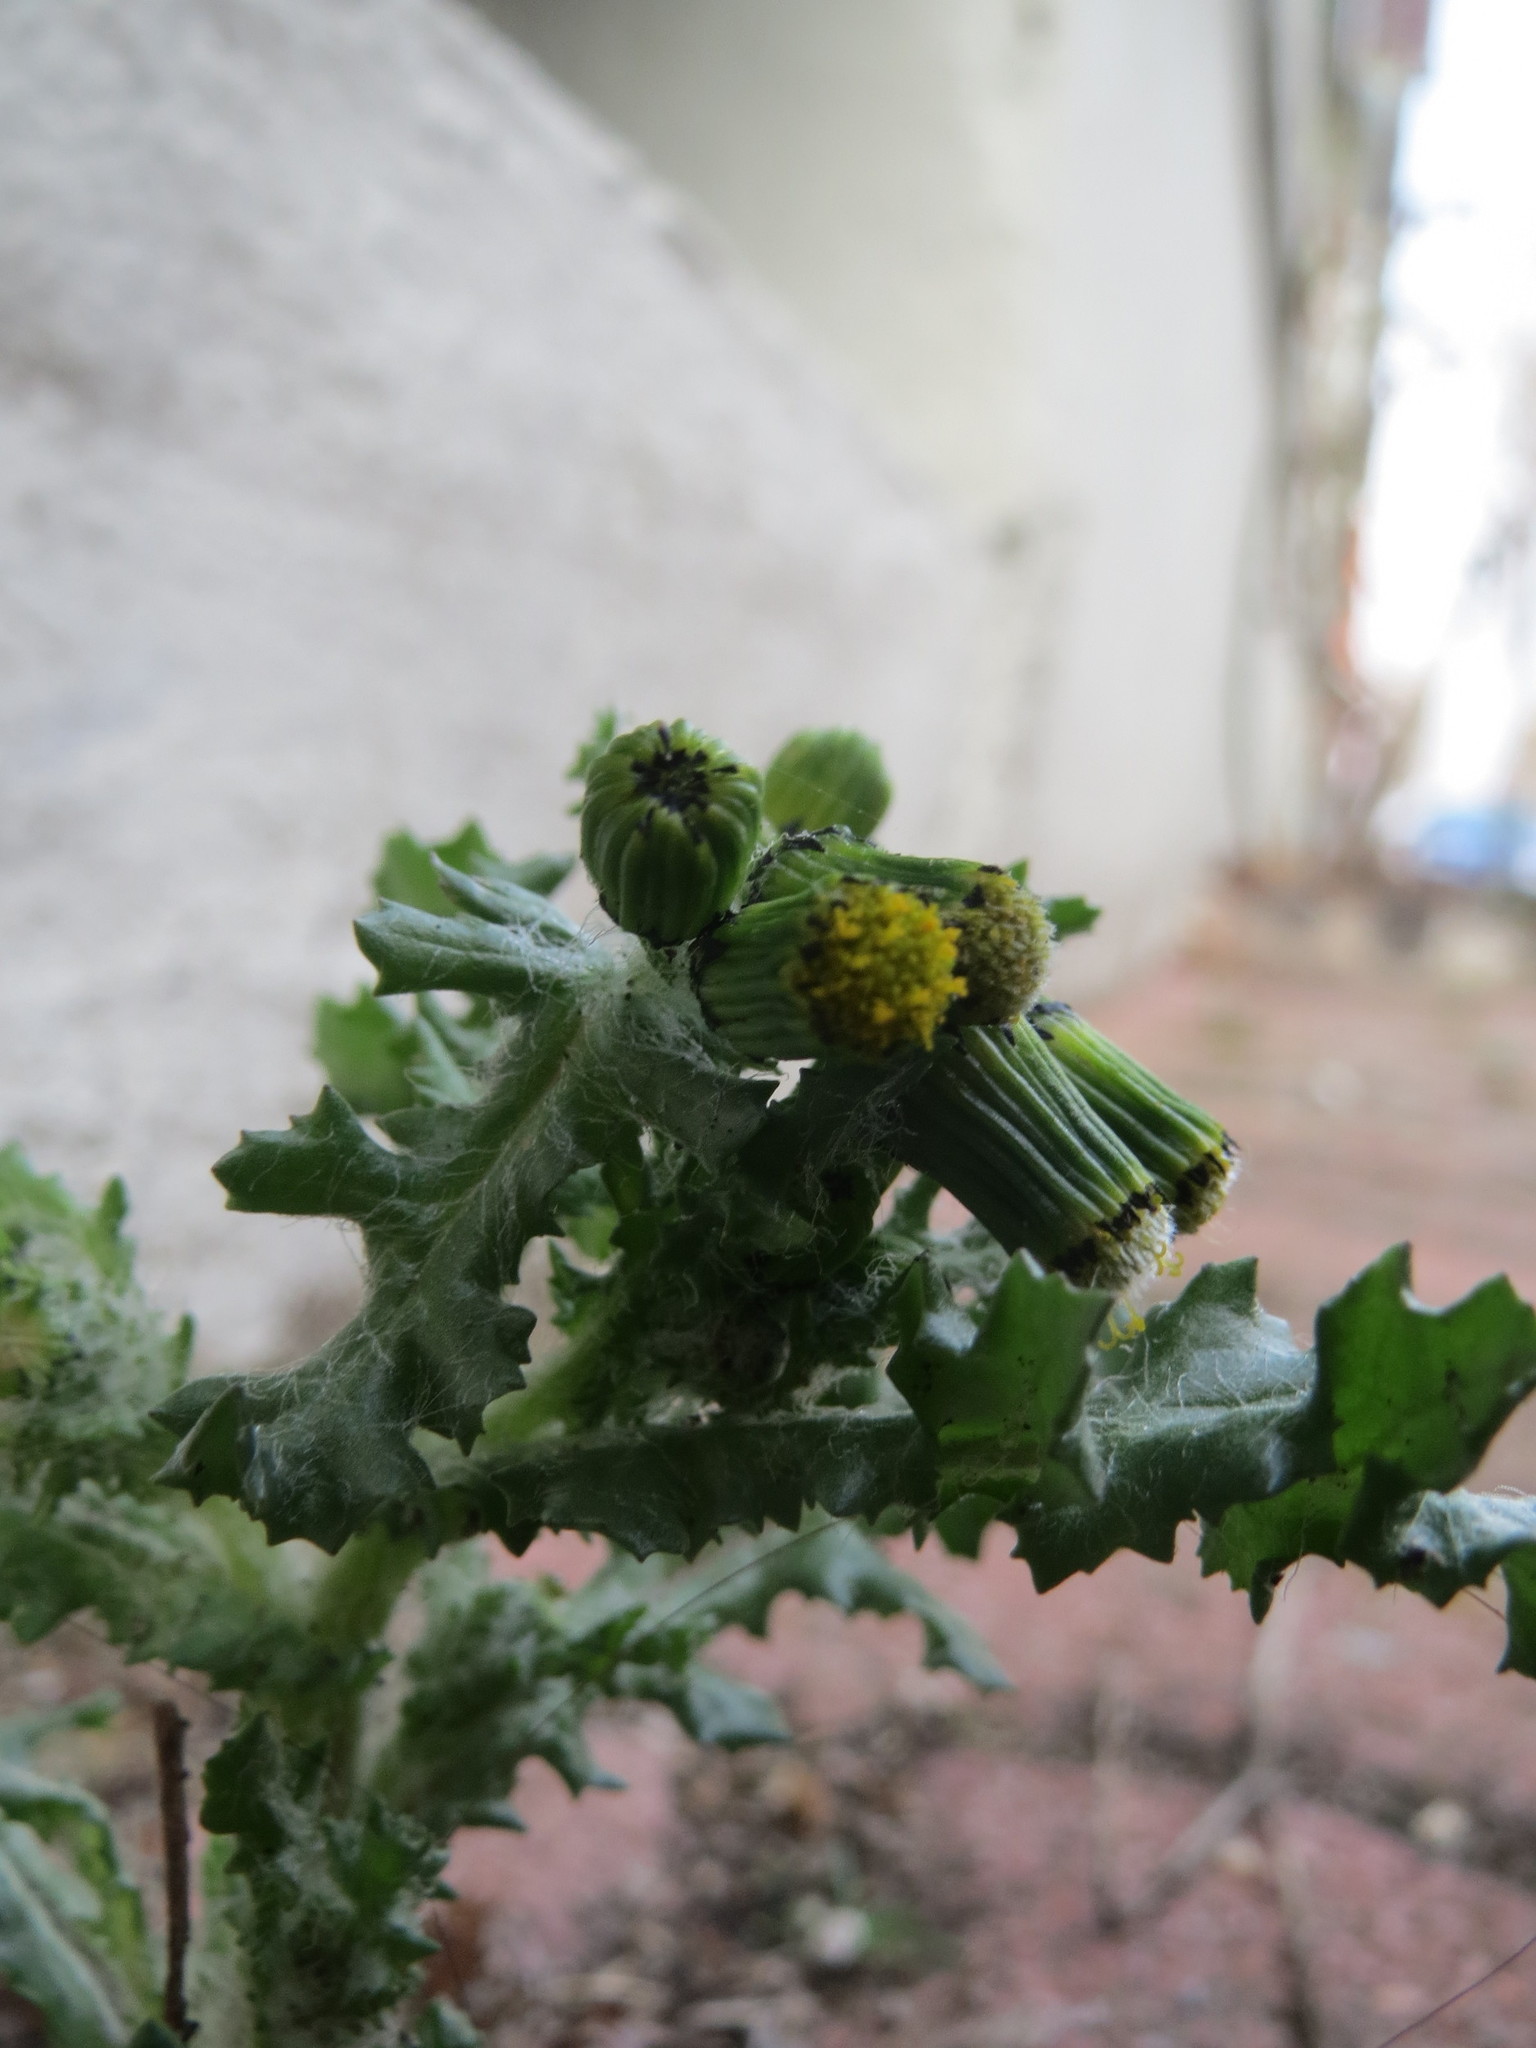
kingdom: Plantae
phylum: Tracheophyta
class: Magnoliopsida
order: Asterales
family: Asteraceae
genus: Senecio
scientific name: Senecio vulgaris
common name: Old-man-in-the-spring
